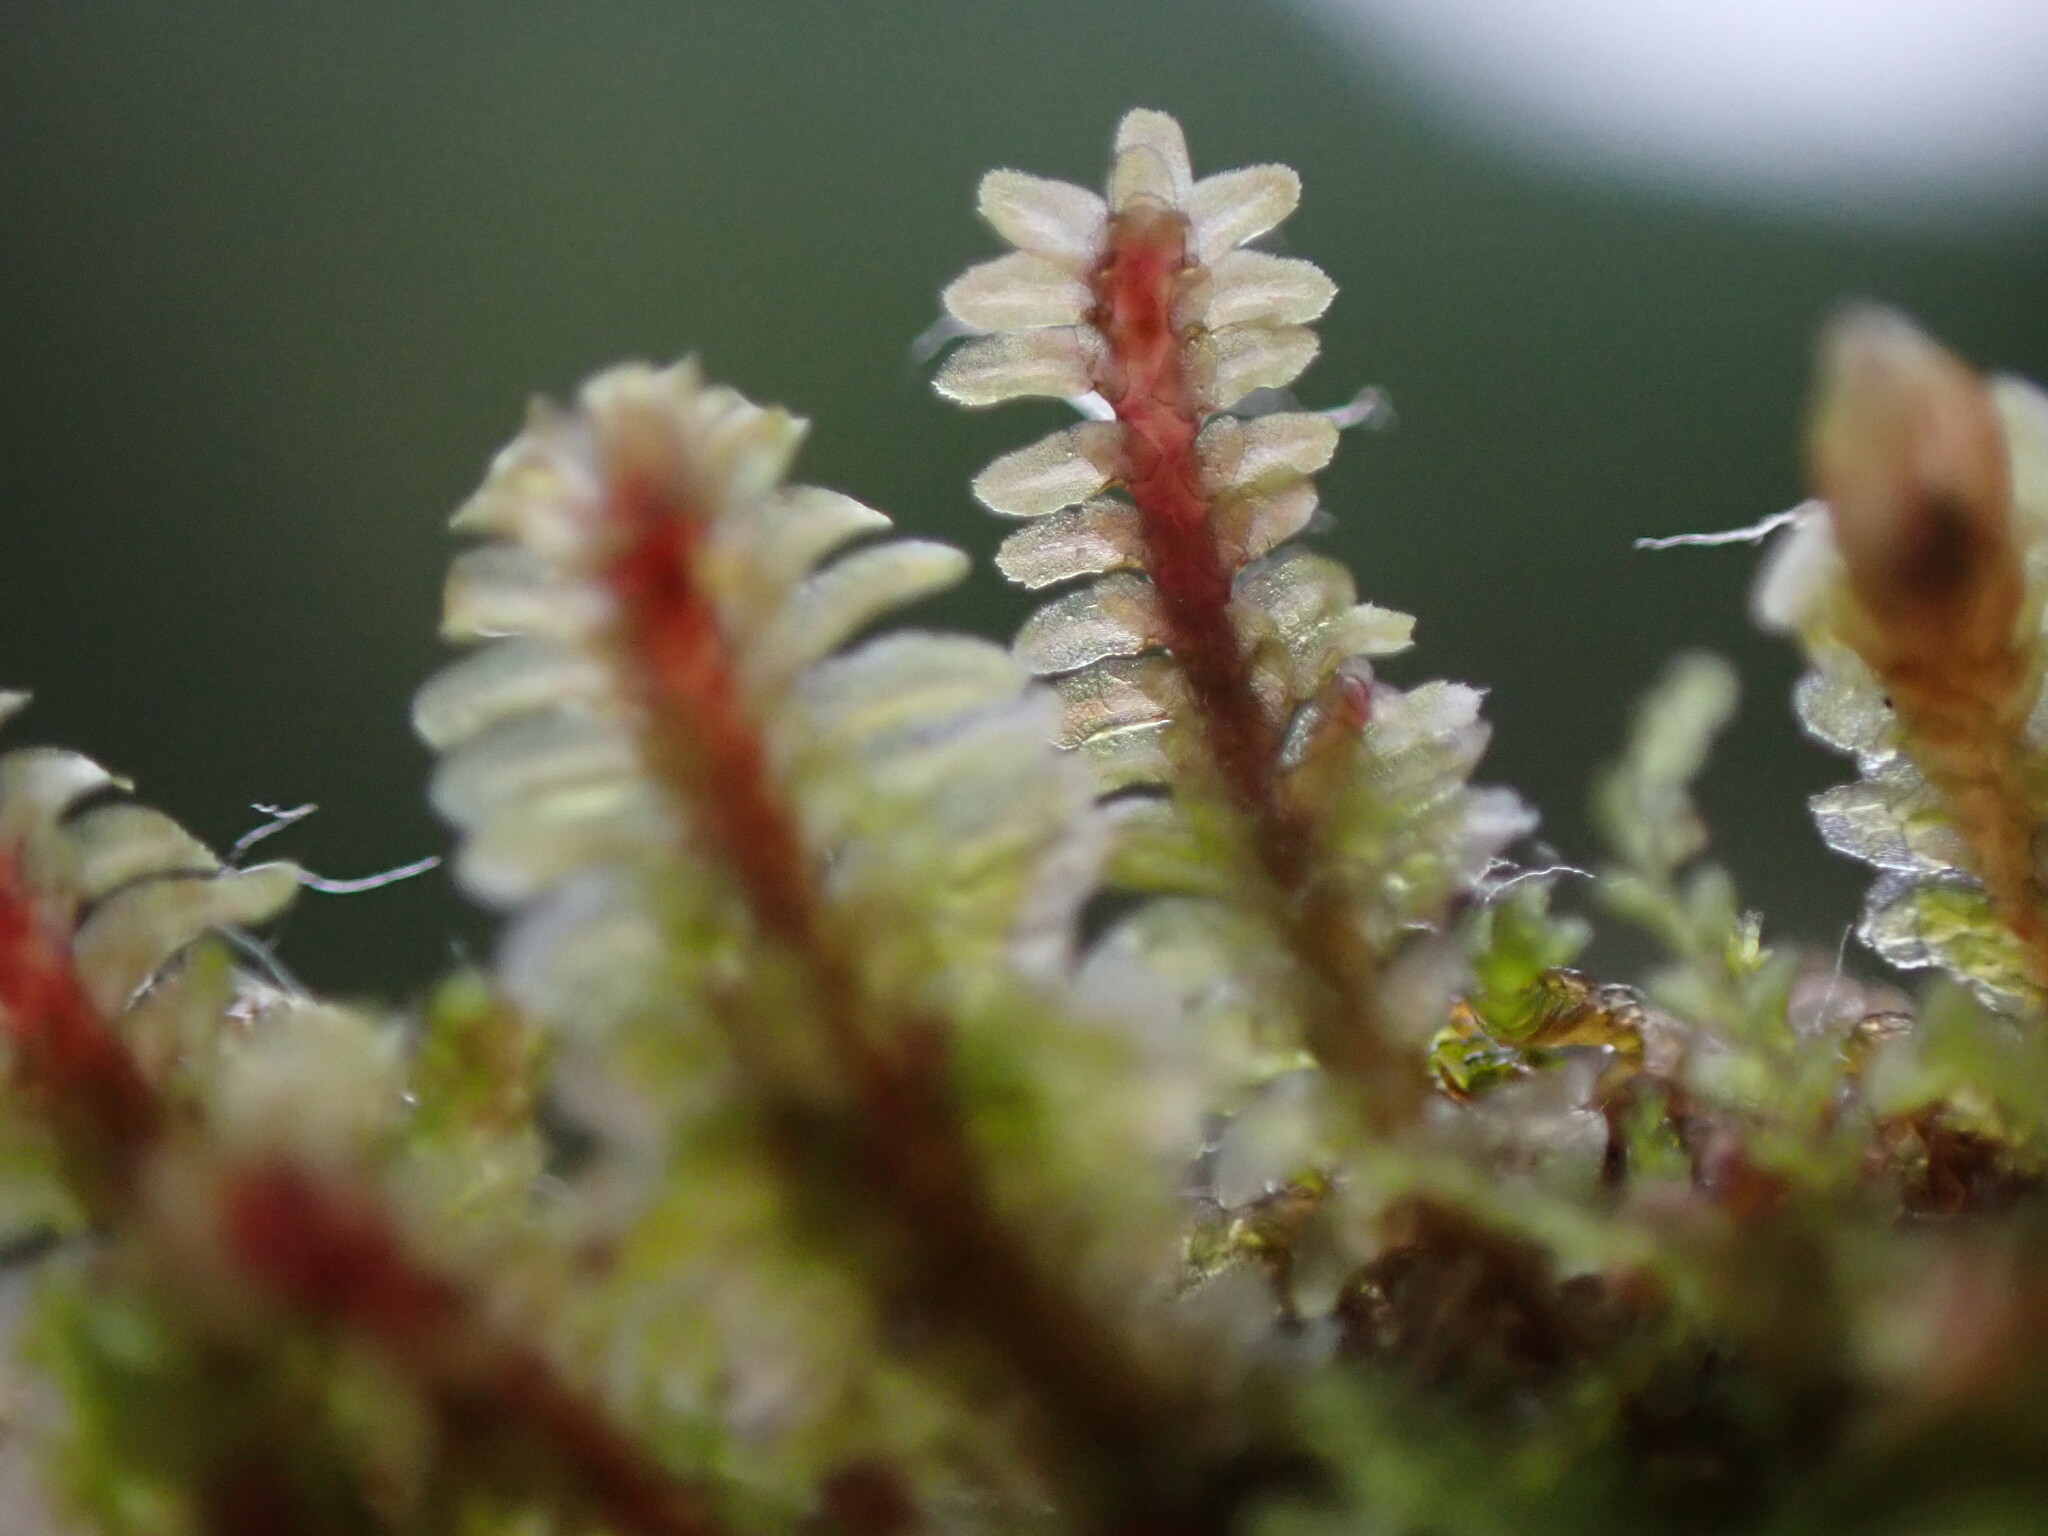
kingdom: Plantae
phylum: Marchantiophyta
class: Jungermanniopsida
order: Jungermanniales
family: Scapaniaceae
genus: Diplophyllum
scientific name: Diplophyllum albicans
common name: White earwort
